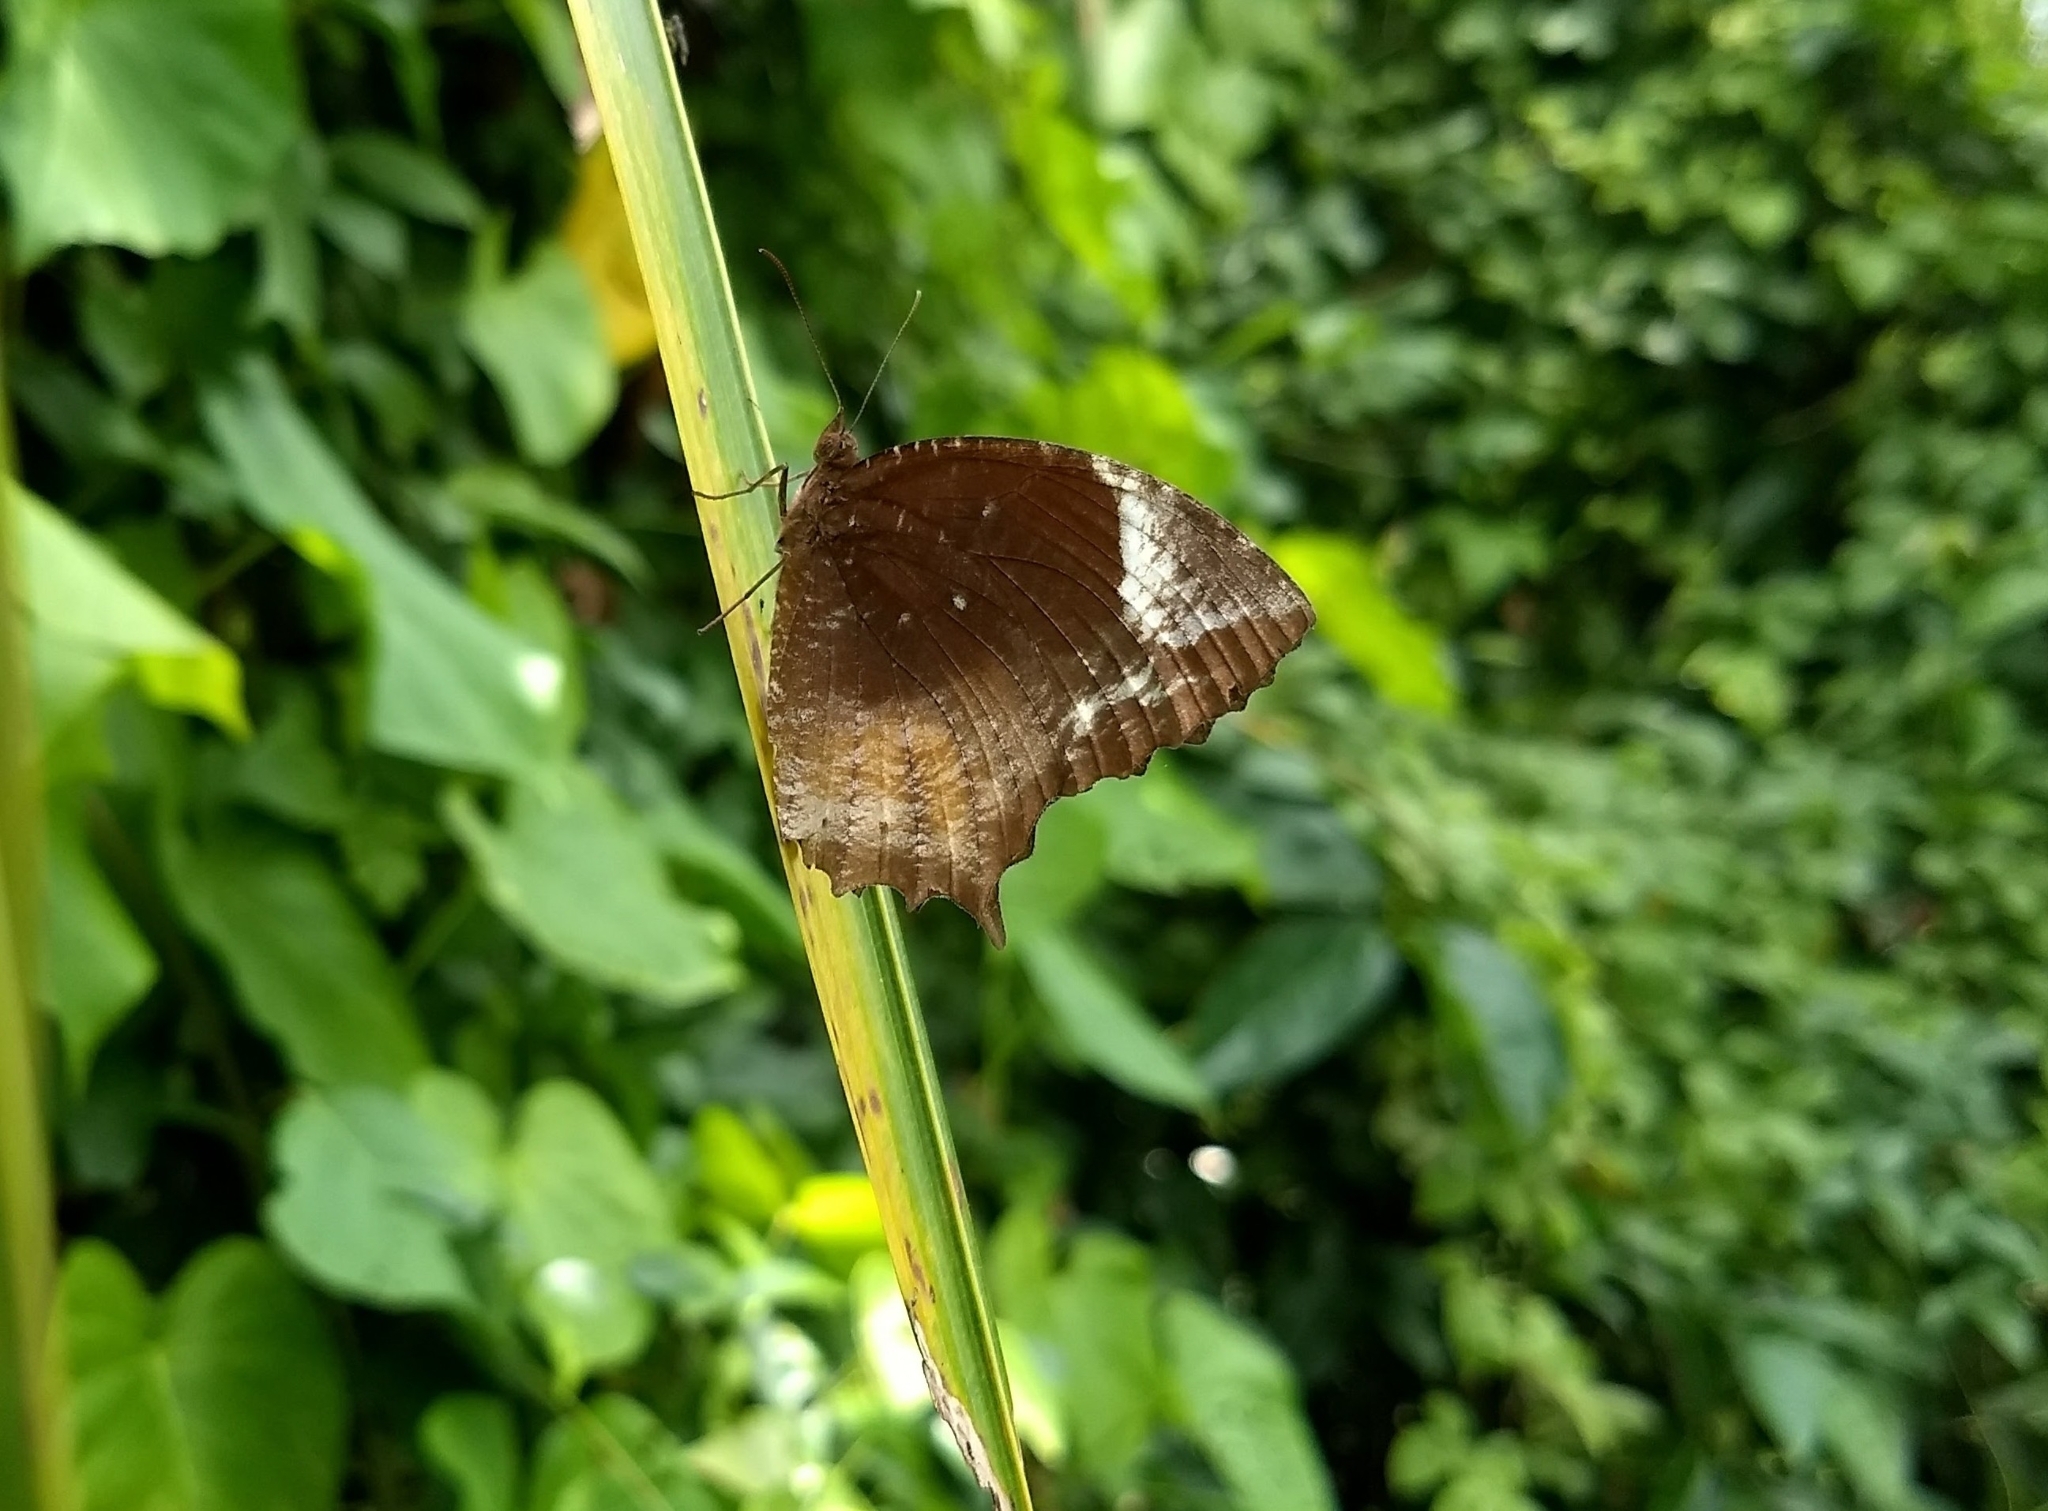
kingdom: Animalia
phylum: Arthropoda
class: Insecta
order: Lepidoptera
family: Nymphalidae
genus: Elymnias
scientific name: Elymnias caudata
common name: Tailed palmfly
